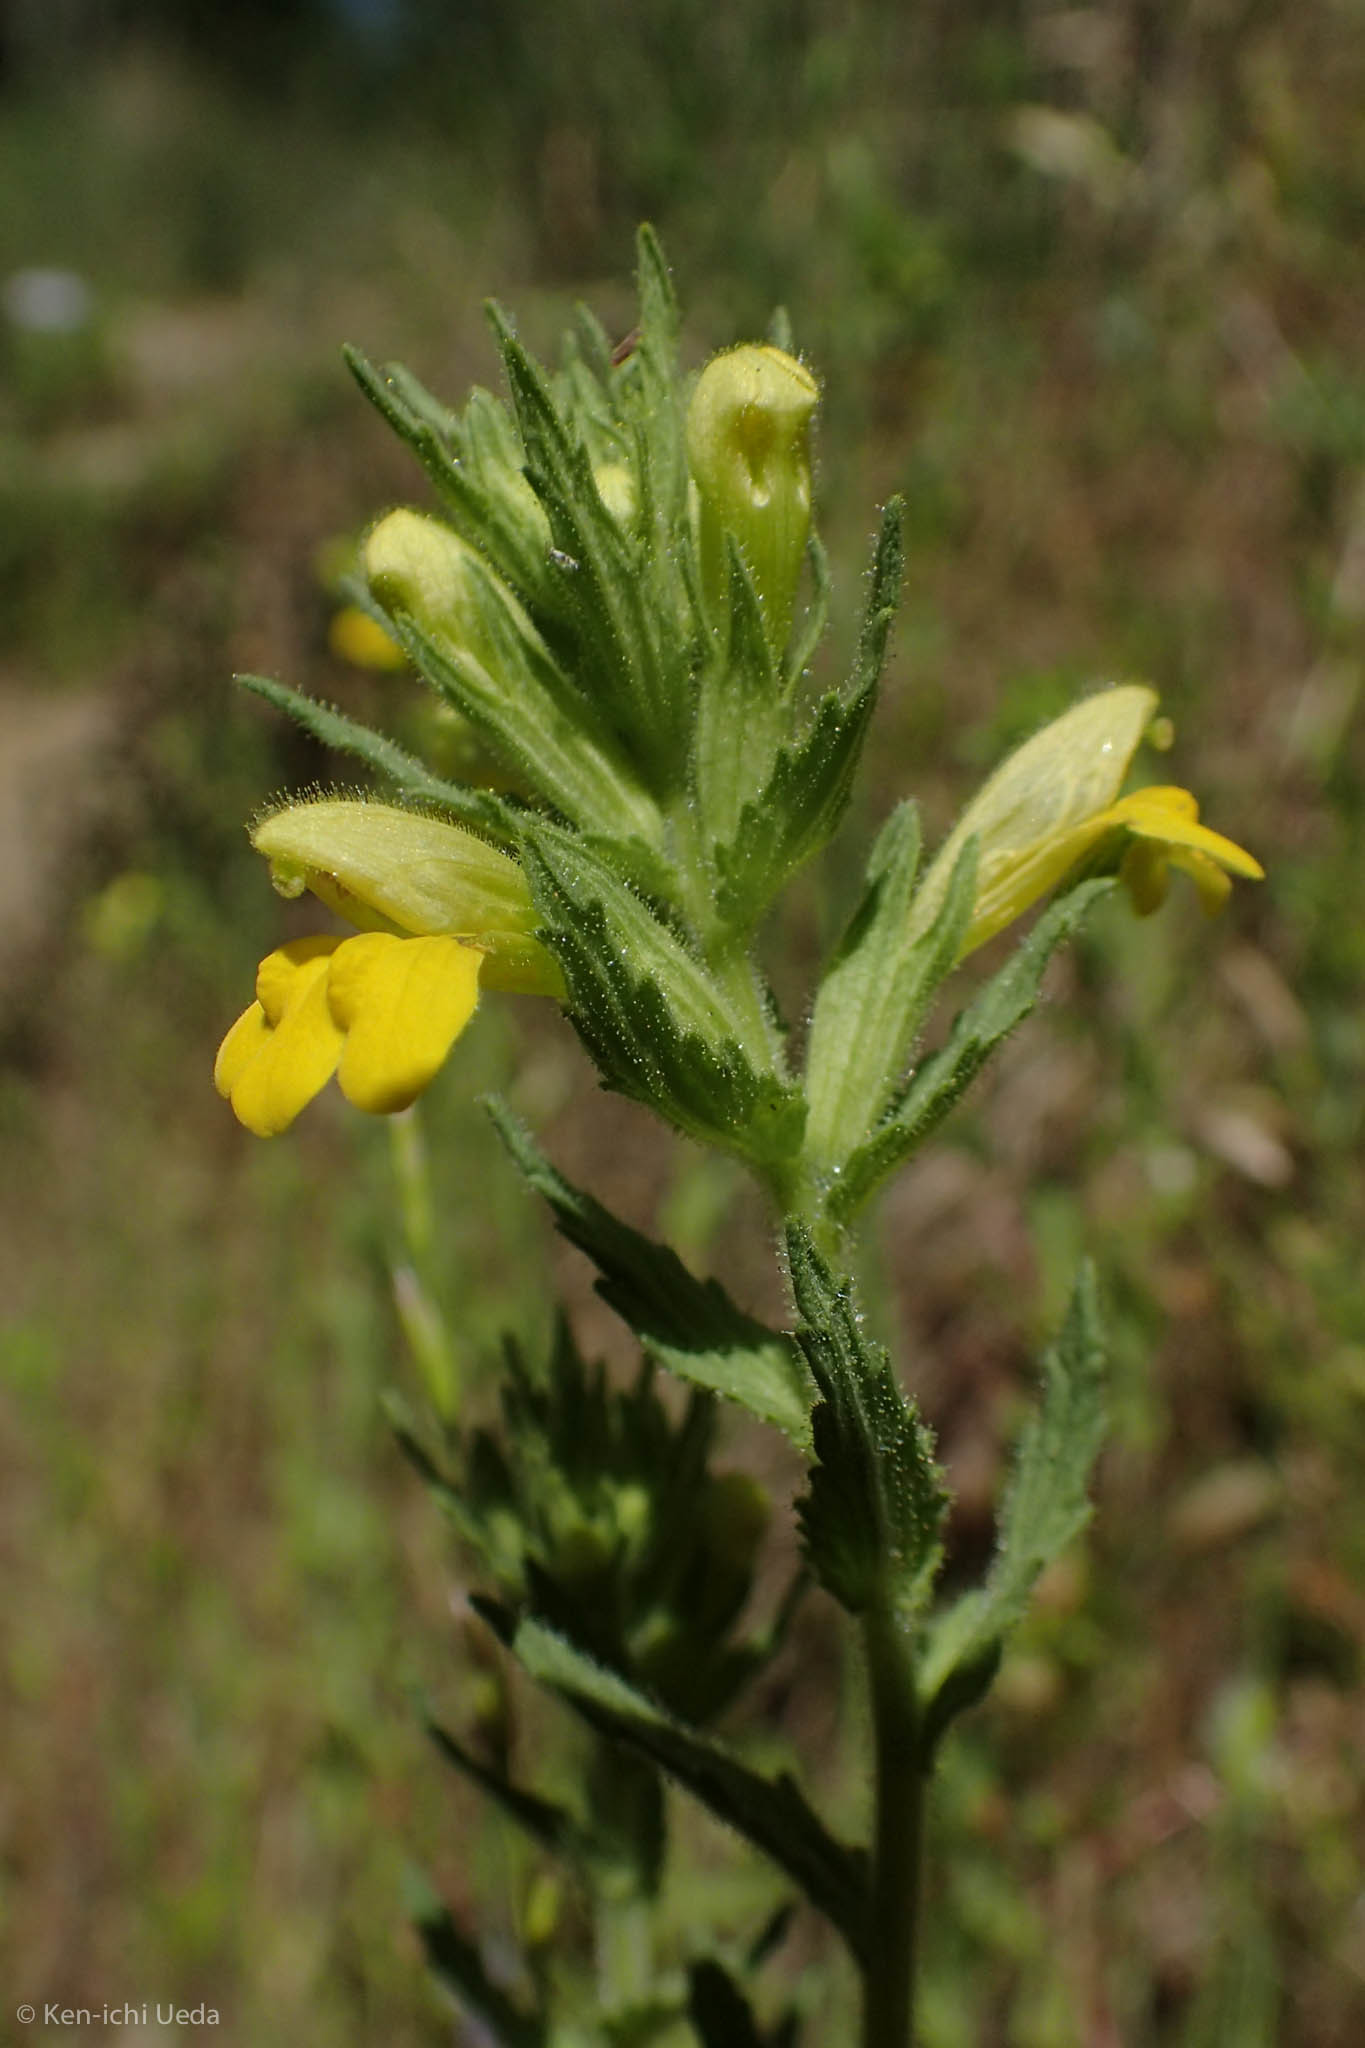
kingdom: Plantae
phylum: Tracheophyta
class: Magnoliopsida
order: Lamiales
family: Orobanchaceae
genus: Bellardia
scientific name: Bellardia viscosa
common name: Sticky parentucellia
